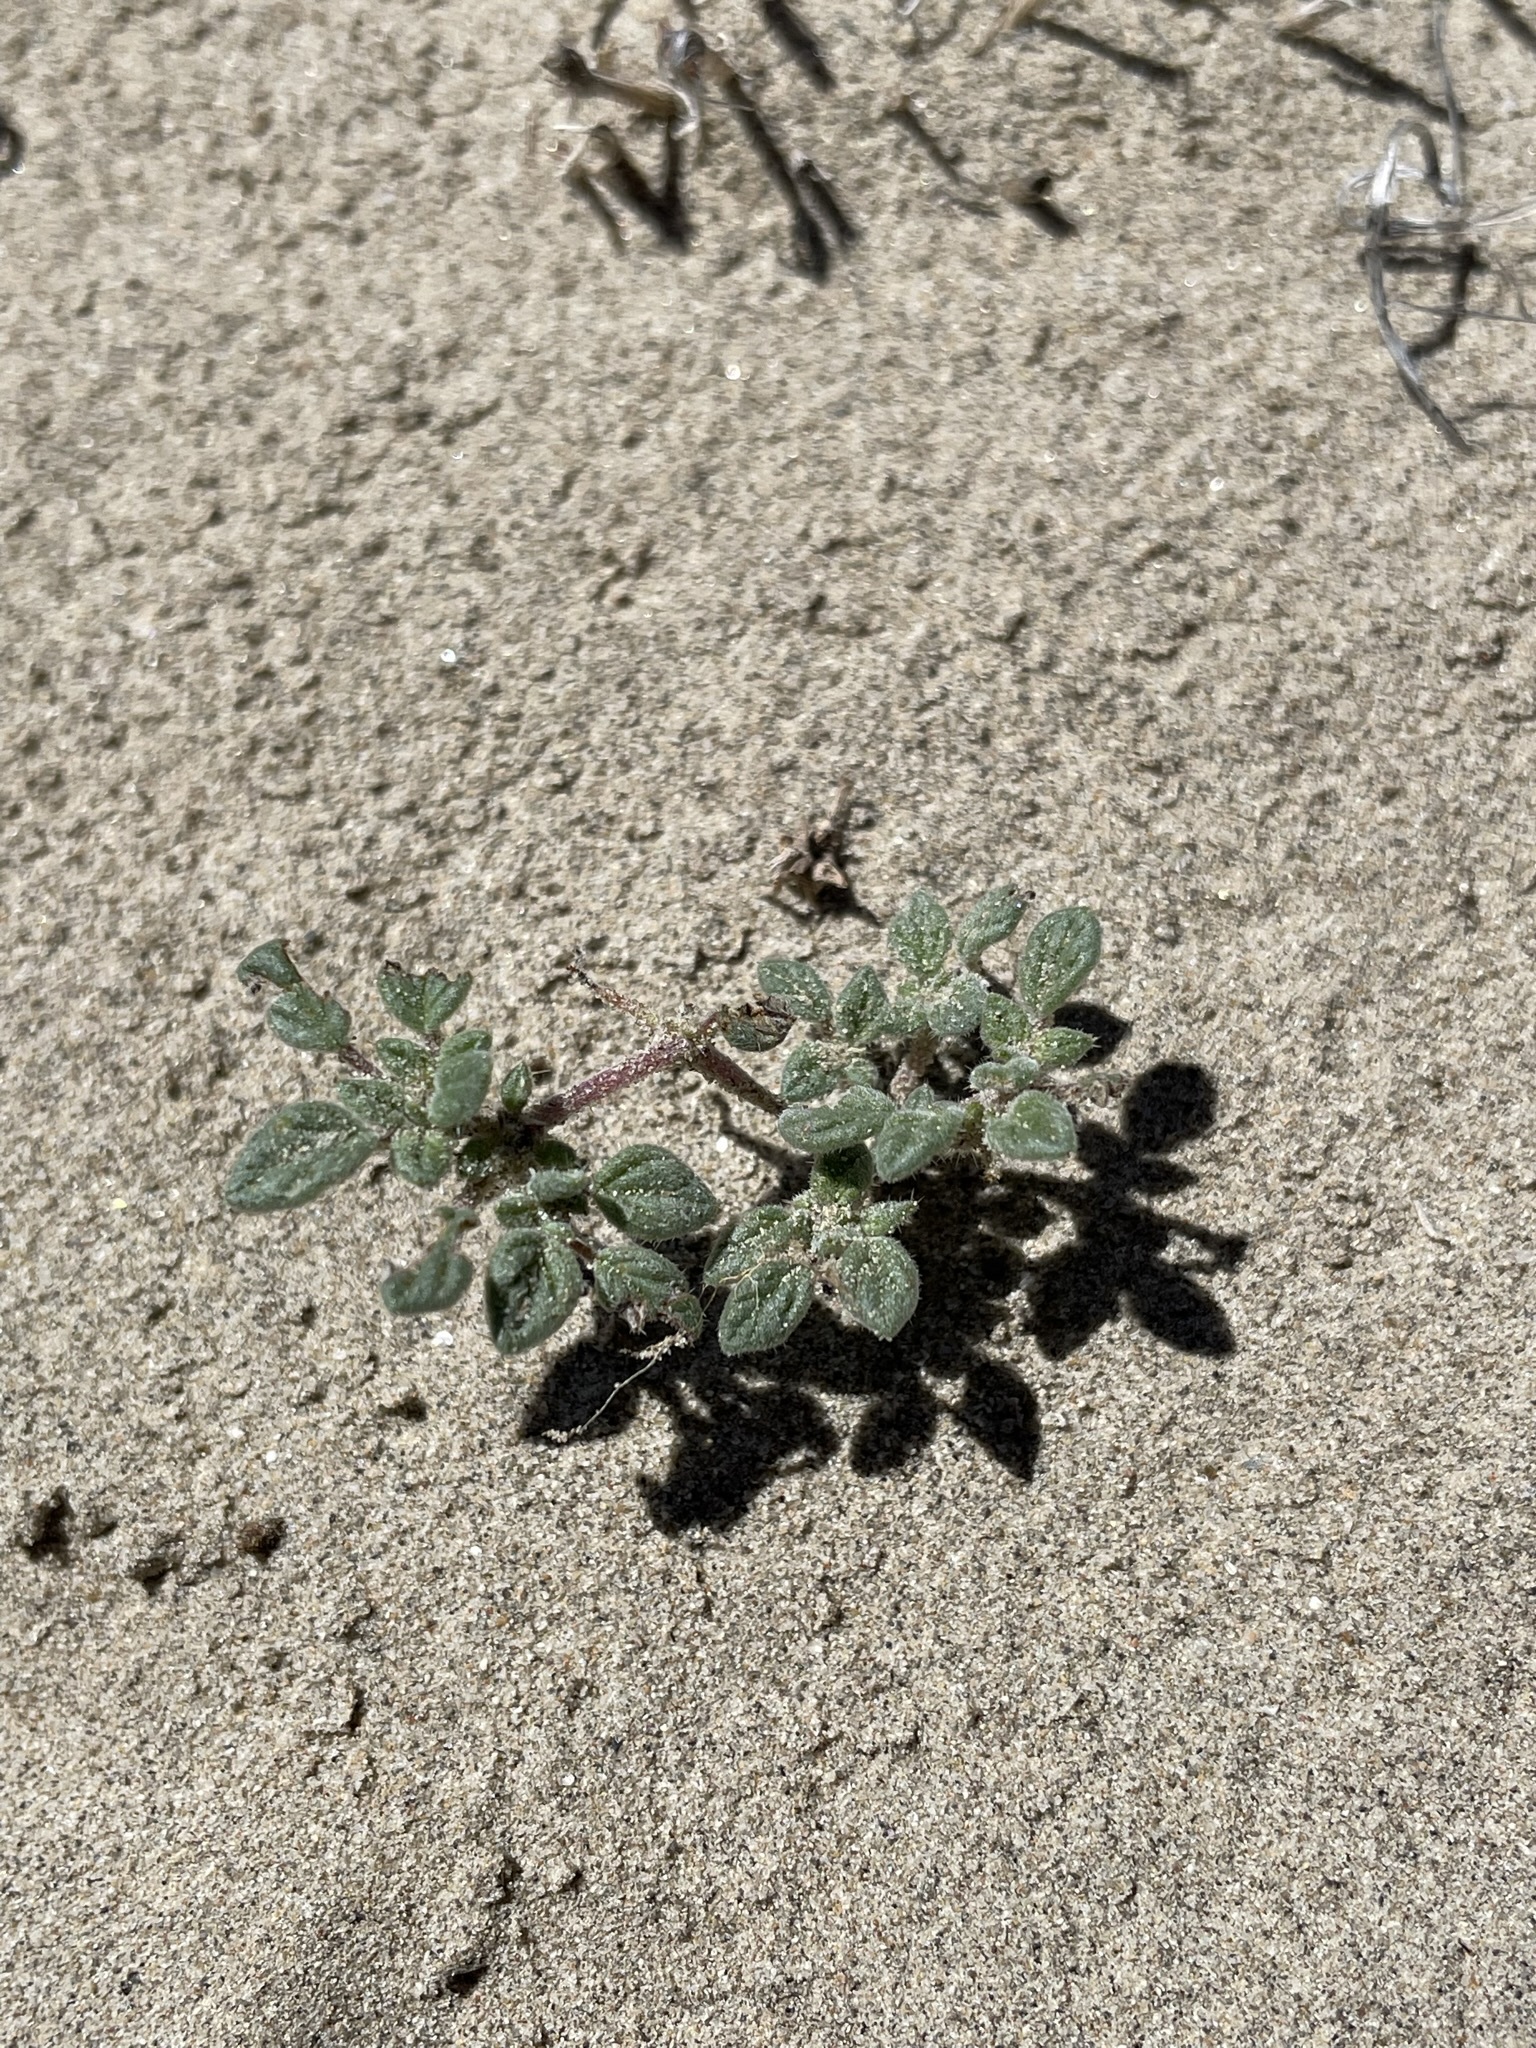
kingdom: Plantae
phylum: Tracheophyta
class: Magnoliopsida
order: Boraginales
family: Ehretiaceae
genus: Tiquilia
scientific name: Tiquilia nuttallii
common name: Rosette tiquilia
